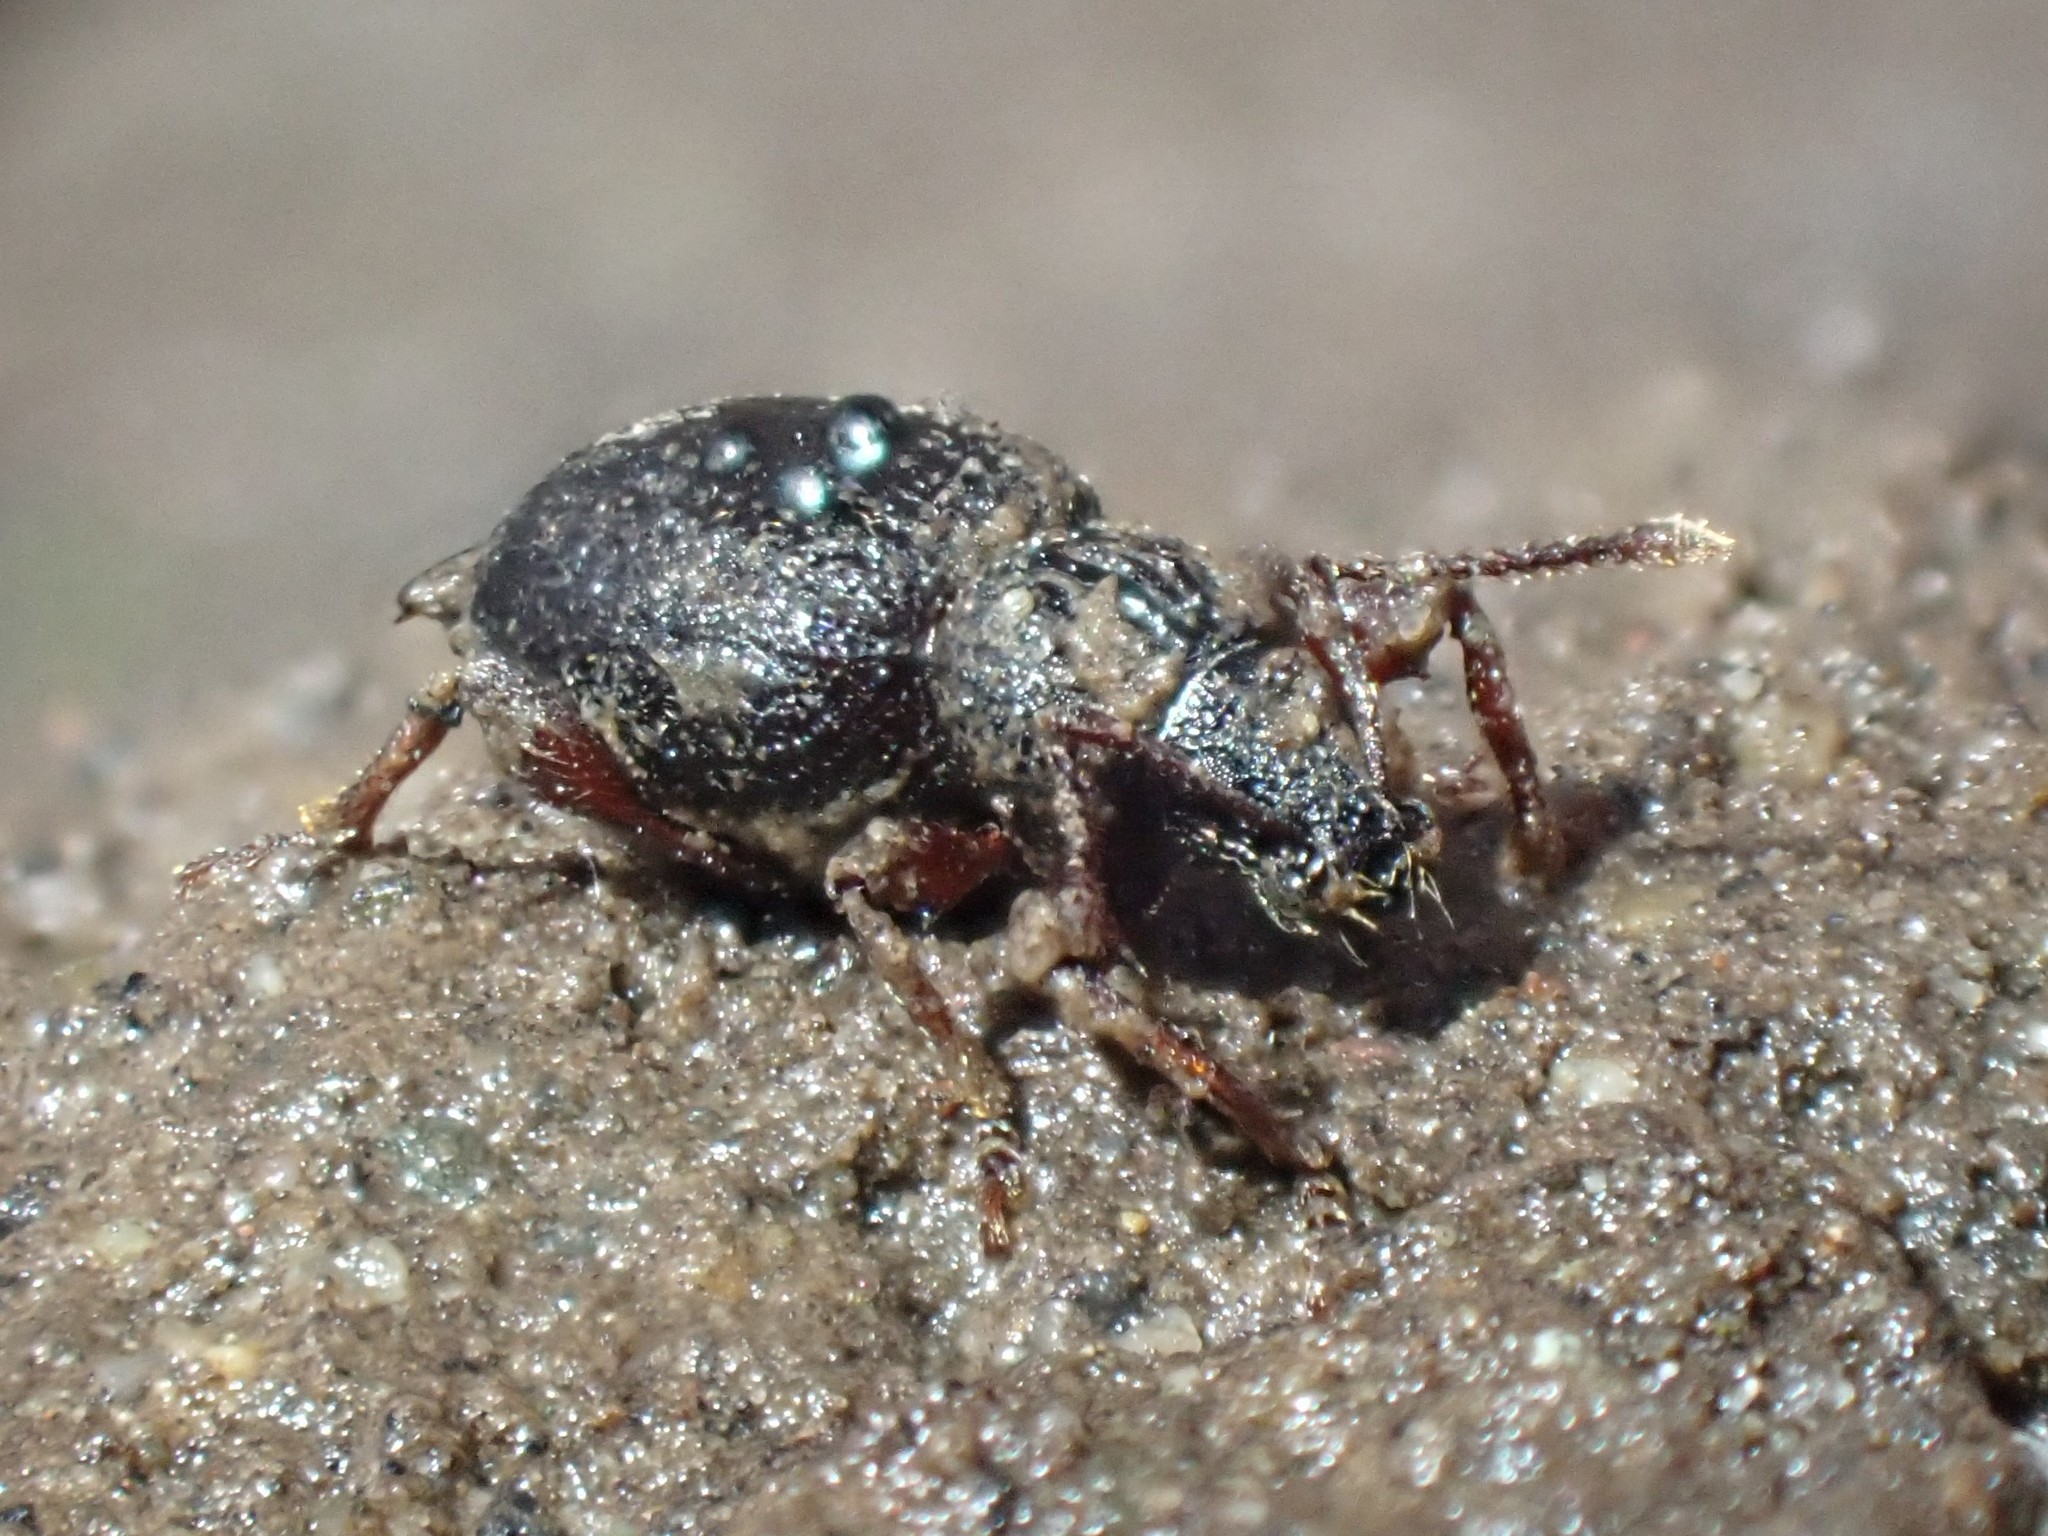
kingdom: Animalia
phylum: Arthropoda
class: Insecta
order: Coleoptera
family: Curculionidae
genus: Otiorhynchus
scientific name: Otiorhynchus ovatus
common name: Strawberry root weevil
